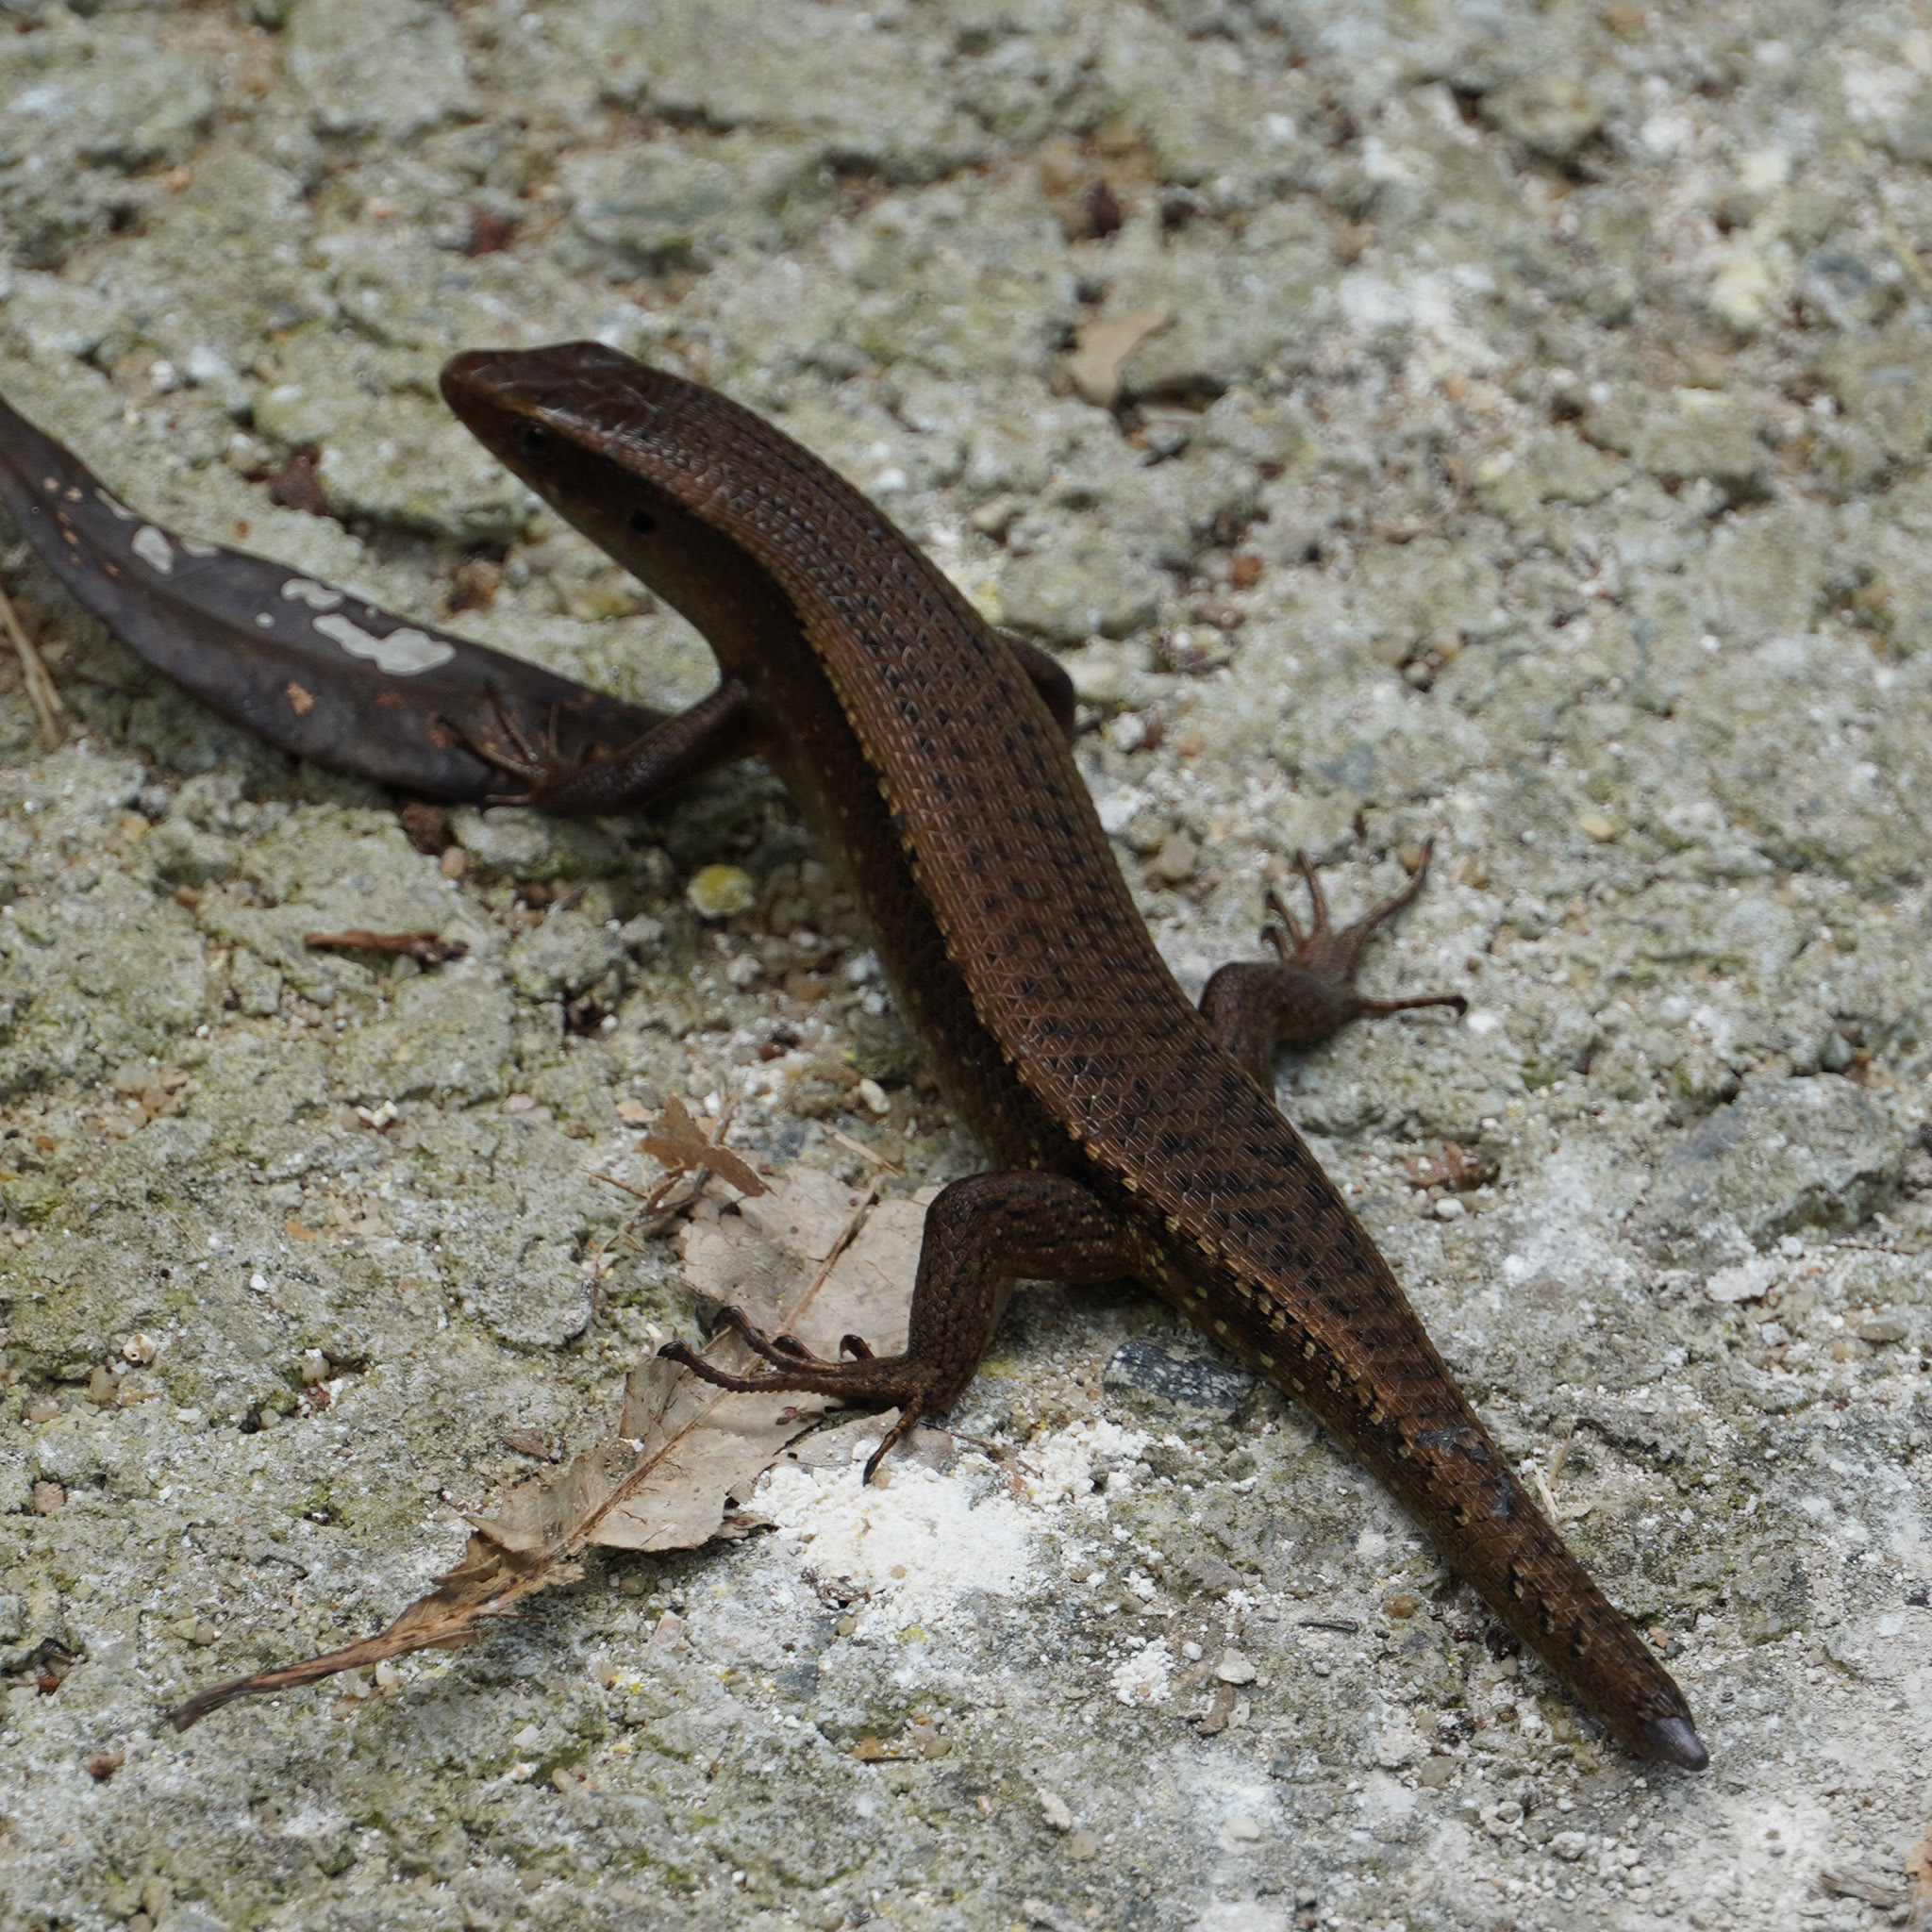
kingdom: Animalia
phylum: Chordata
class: Squamata
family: Scincidae
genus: Eutropis
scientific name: Eutropis multifasciata
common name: Common mabuya
